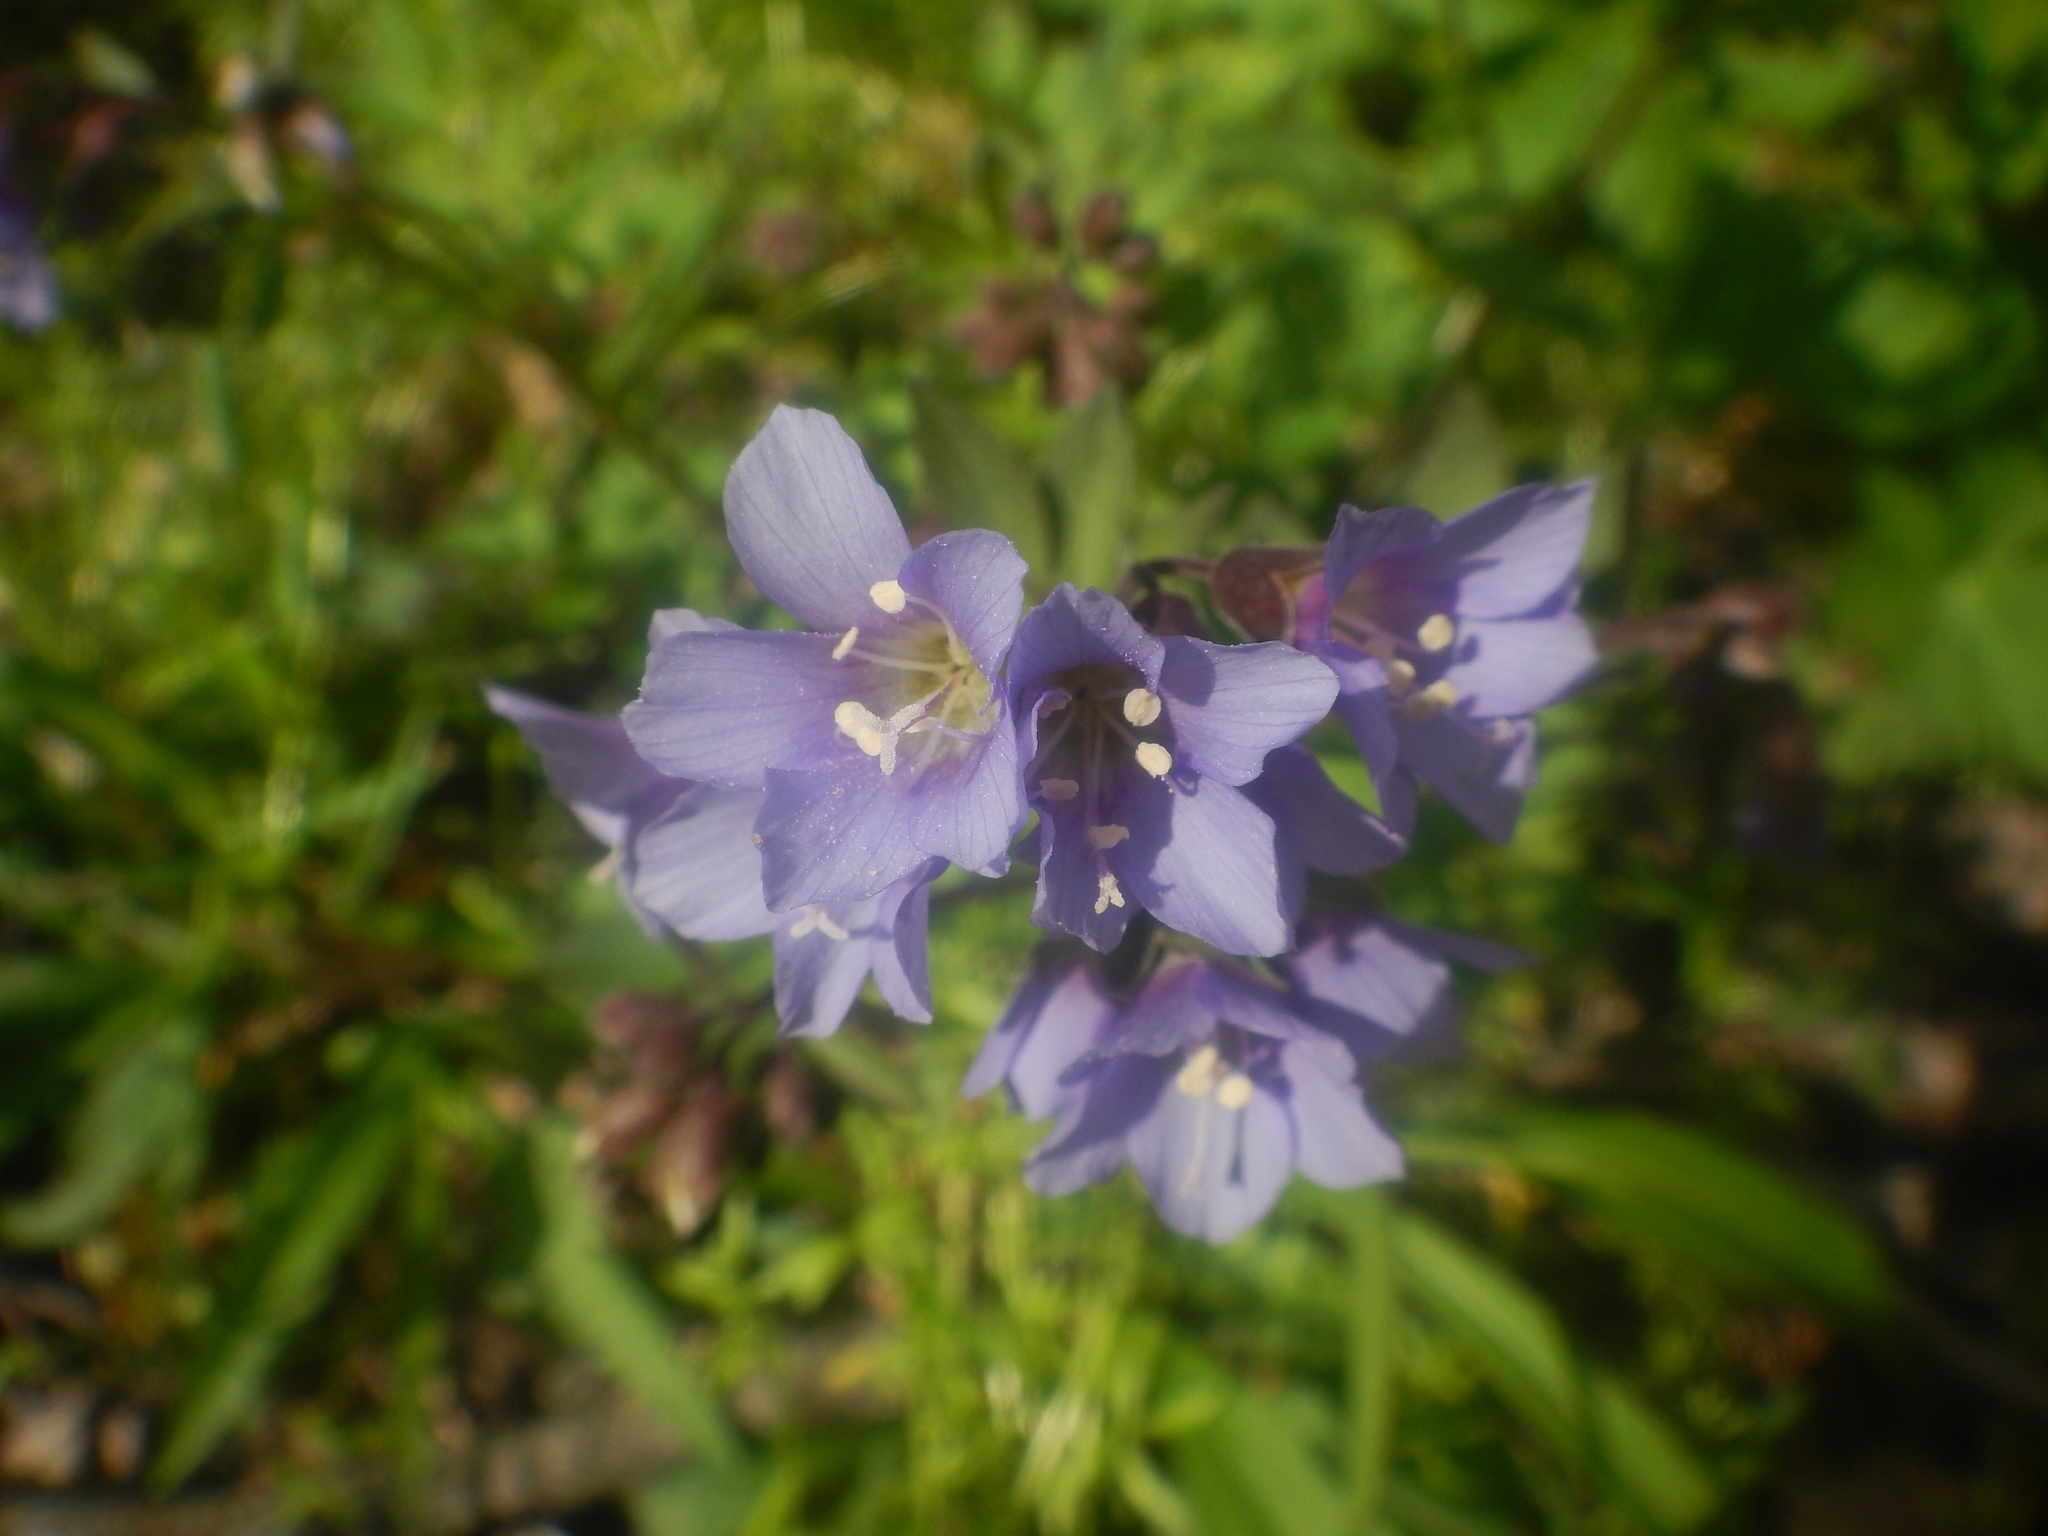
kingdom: Plantae
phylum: Tracheophyta
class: Magnoliopsida
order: Ericales
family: Polemoniaceae
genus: Polemonium
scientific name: Polemonium reptans
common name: Creeping jacob's-ladder
